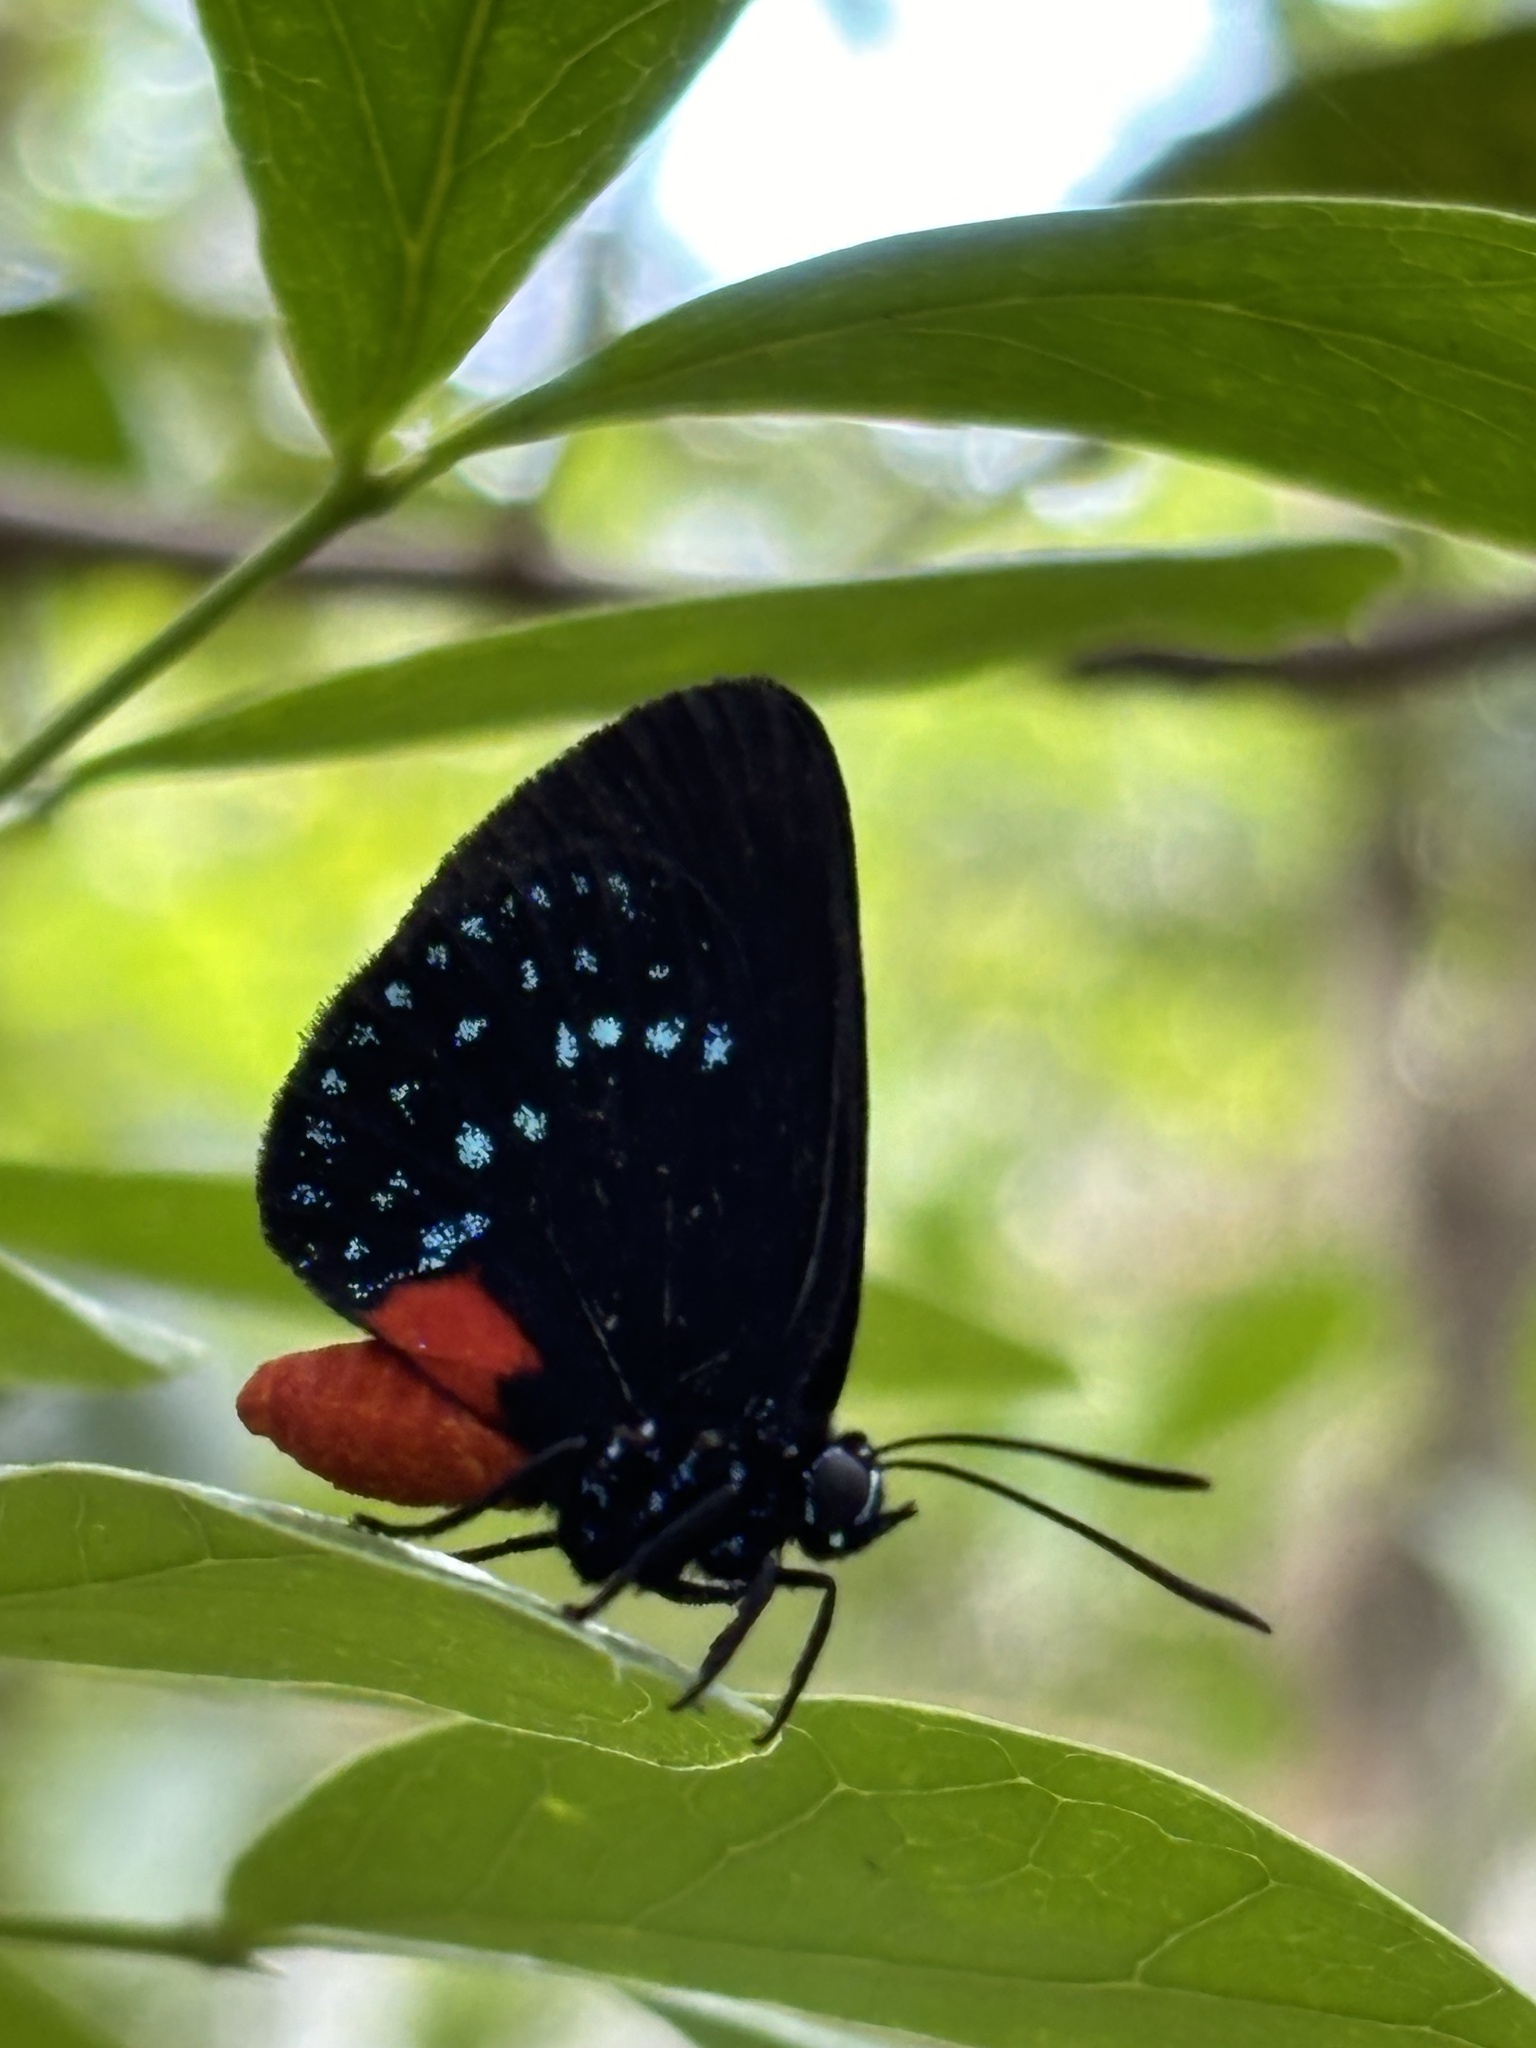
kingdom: Animalia
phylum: Arthropoda
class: Insecta
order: Lepidoptera
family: Lycaenidae
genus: Eumaeus
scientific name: Eumaeus atala
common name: Atala
